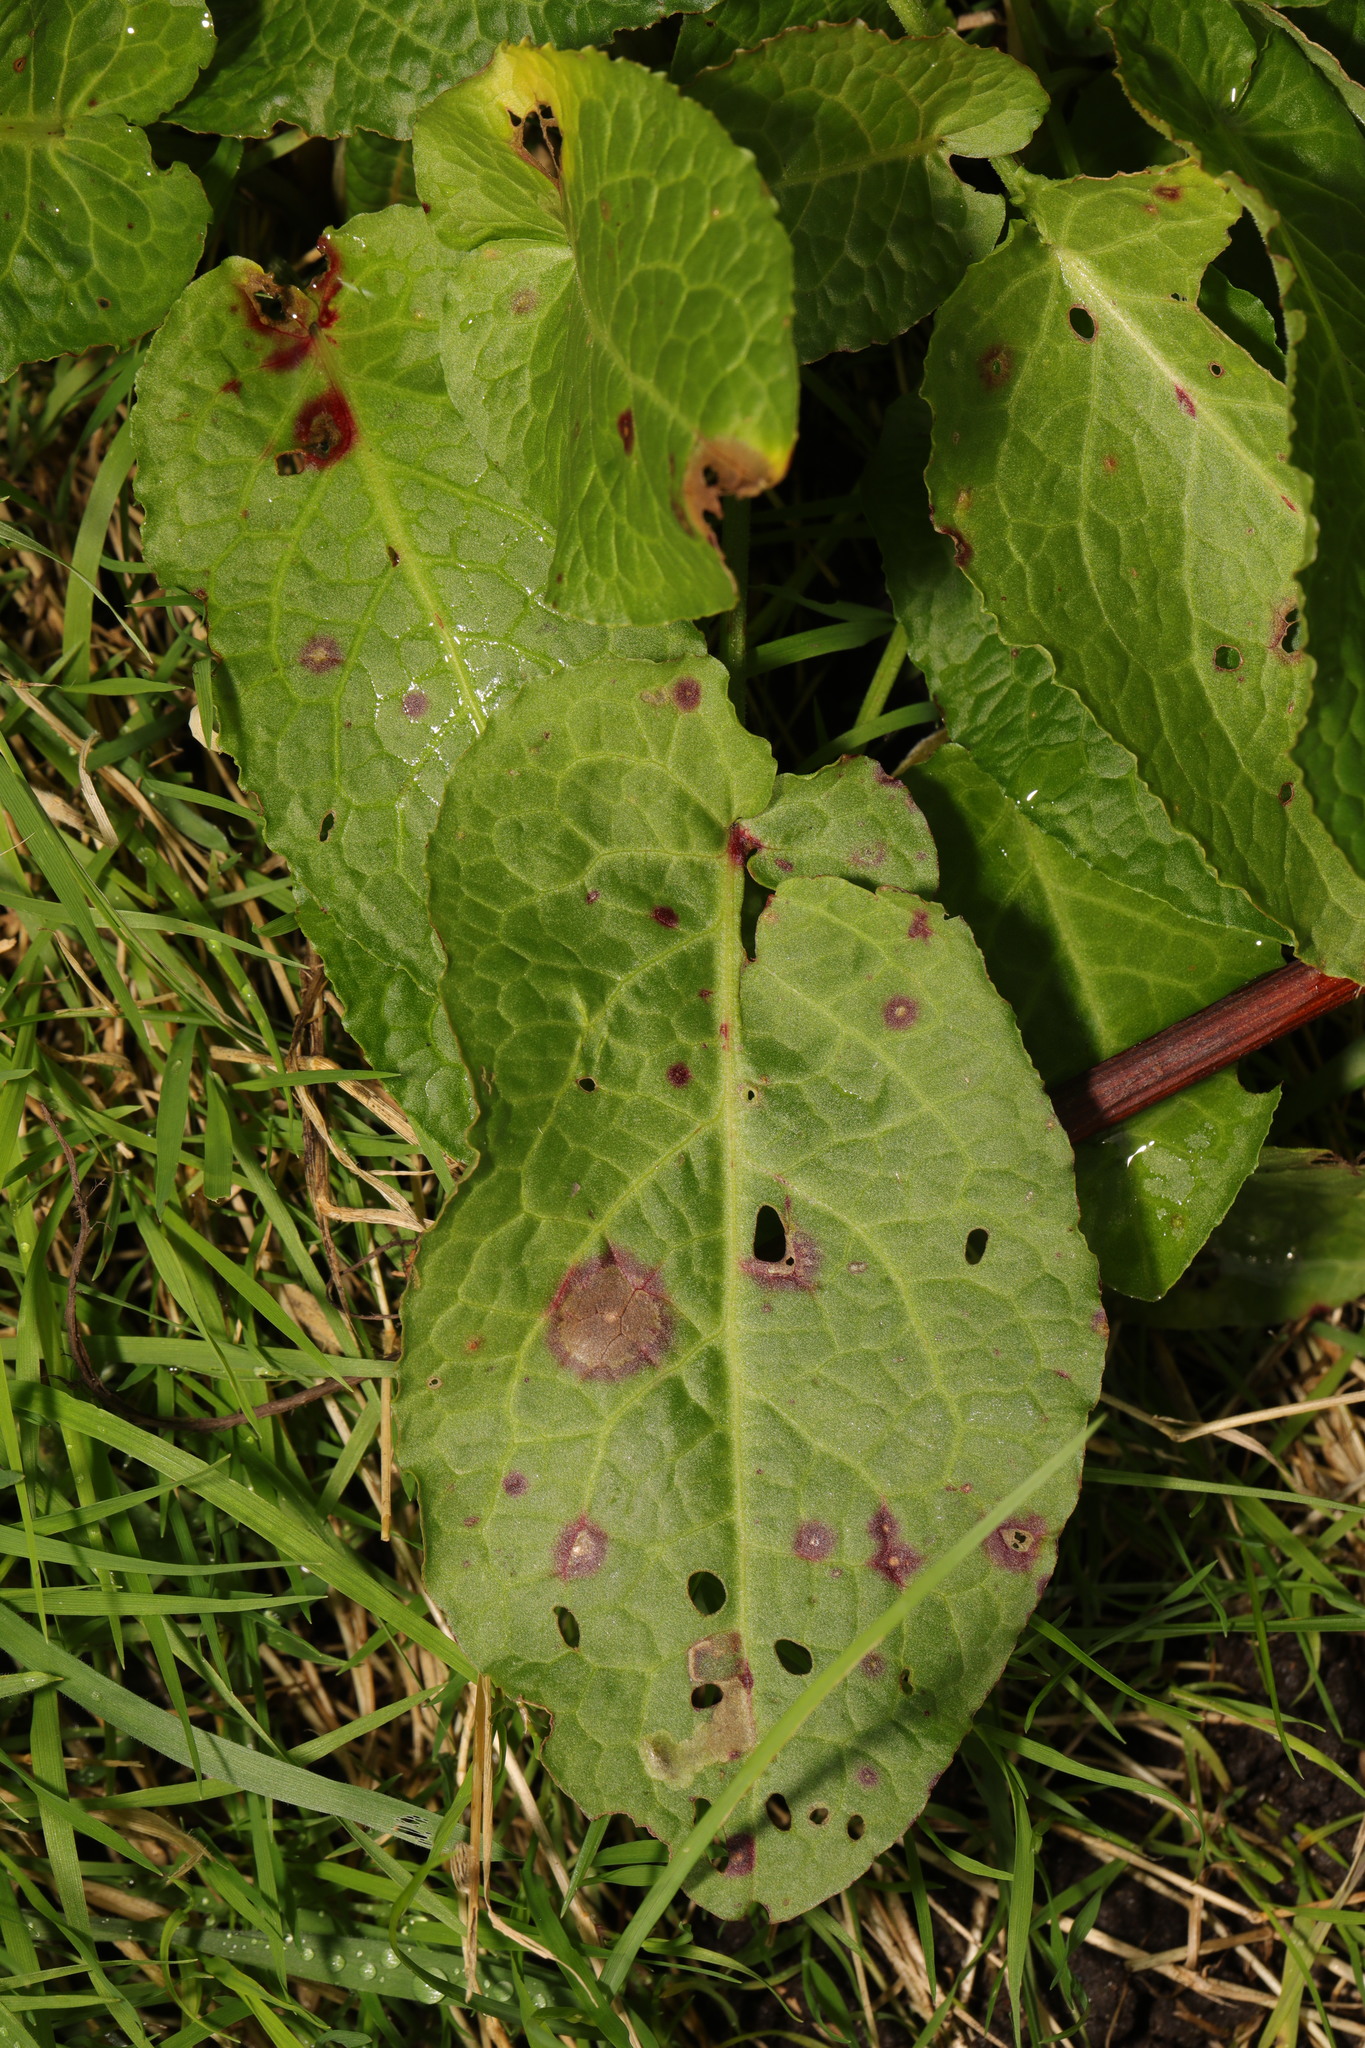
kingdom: Plantae
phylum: Tracheophyta
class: Magnoliopsida
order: Caryophyllales
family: Polygonaceae
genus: Rumex
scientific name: Rumex obtusifolius
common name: Bitter dock
